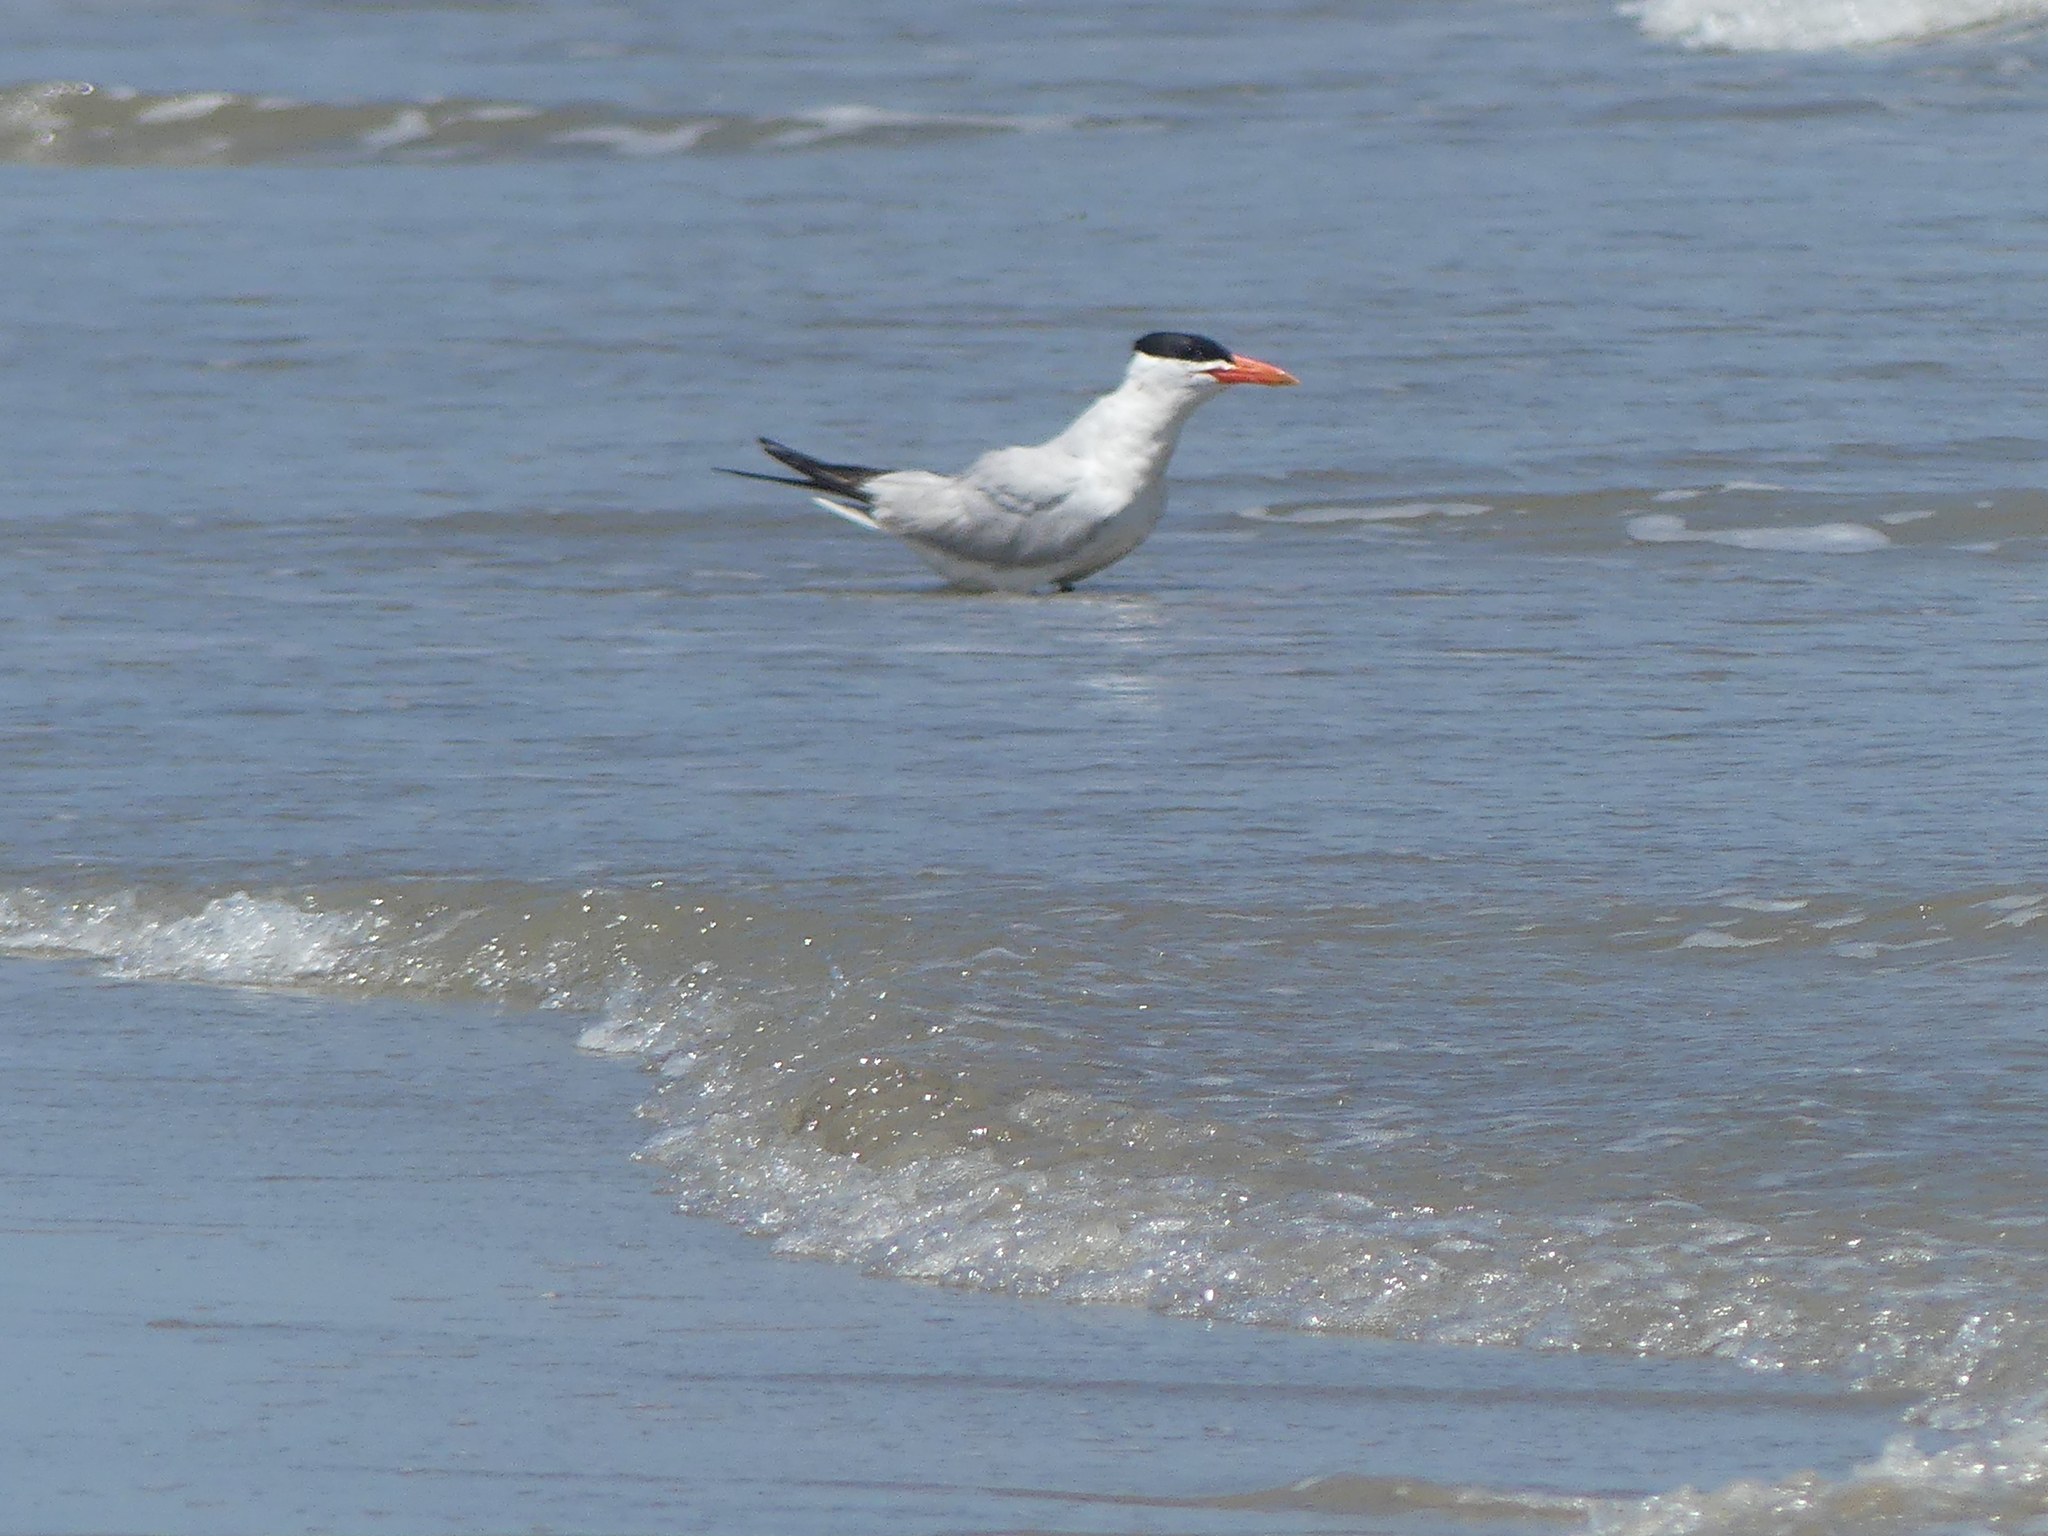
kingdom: Animalia
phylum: Chordata
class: Aves
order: Charadriiformes
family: Laridae
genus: Hydroprogne
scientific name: Hydroprogne caspia
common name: Caspian tern
